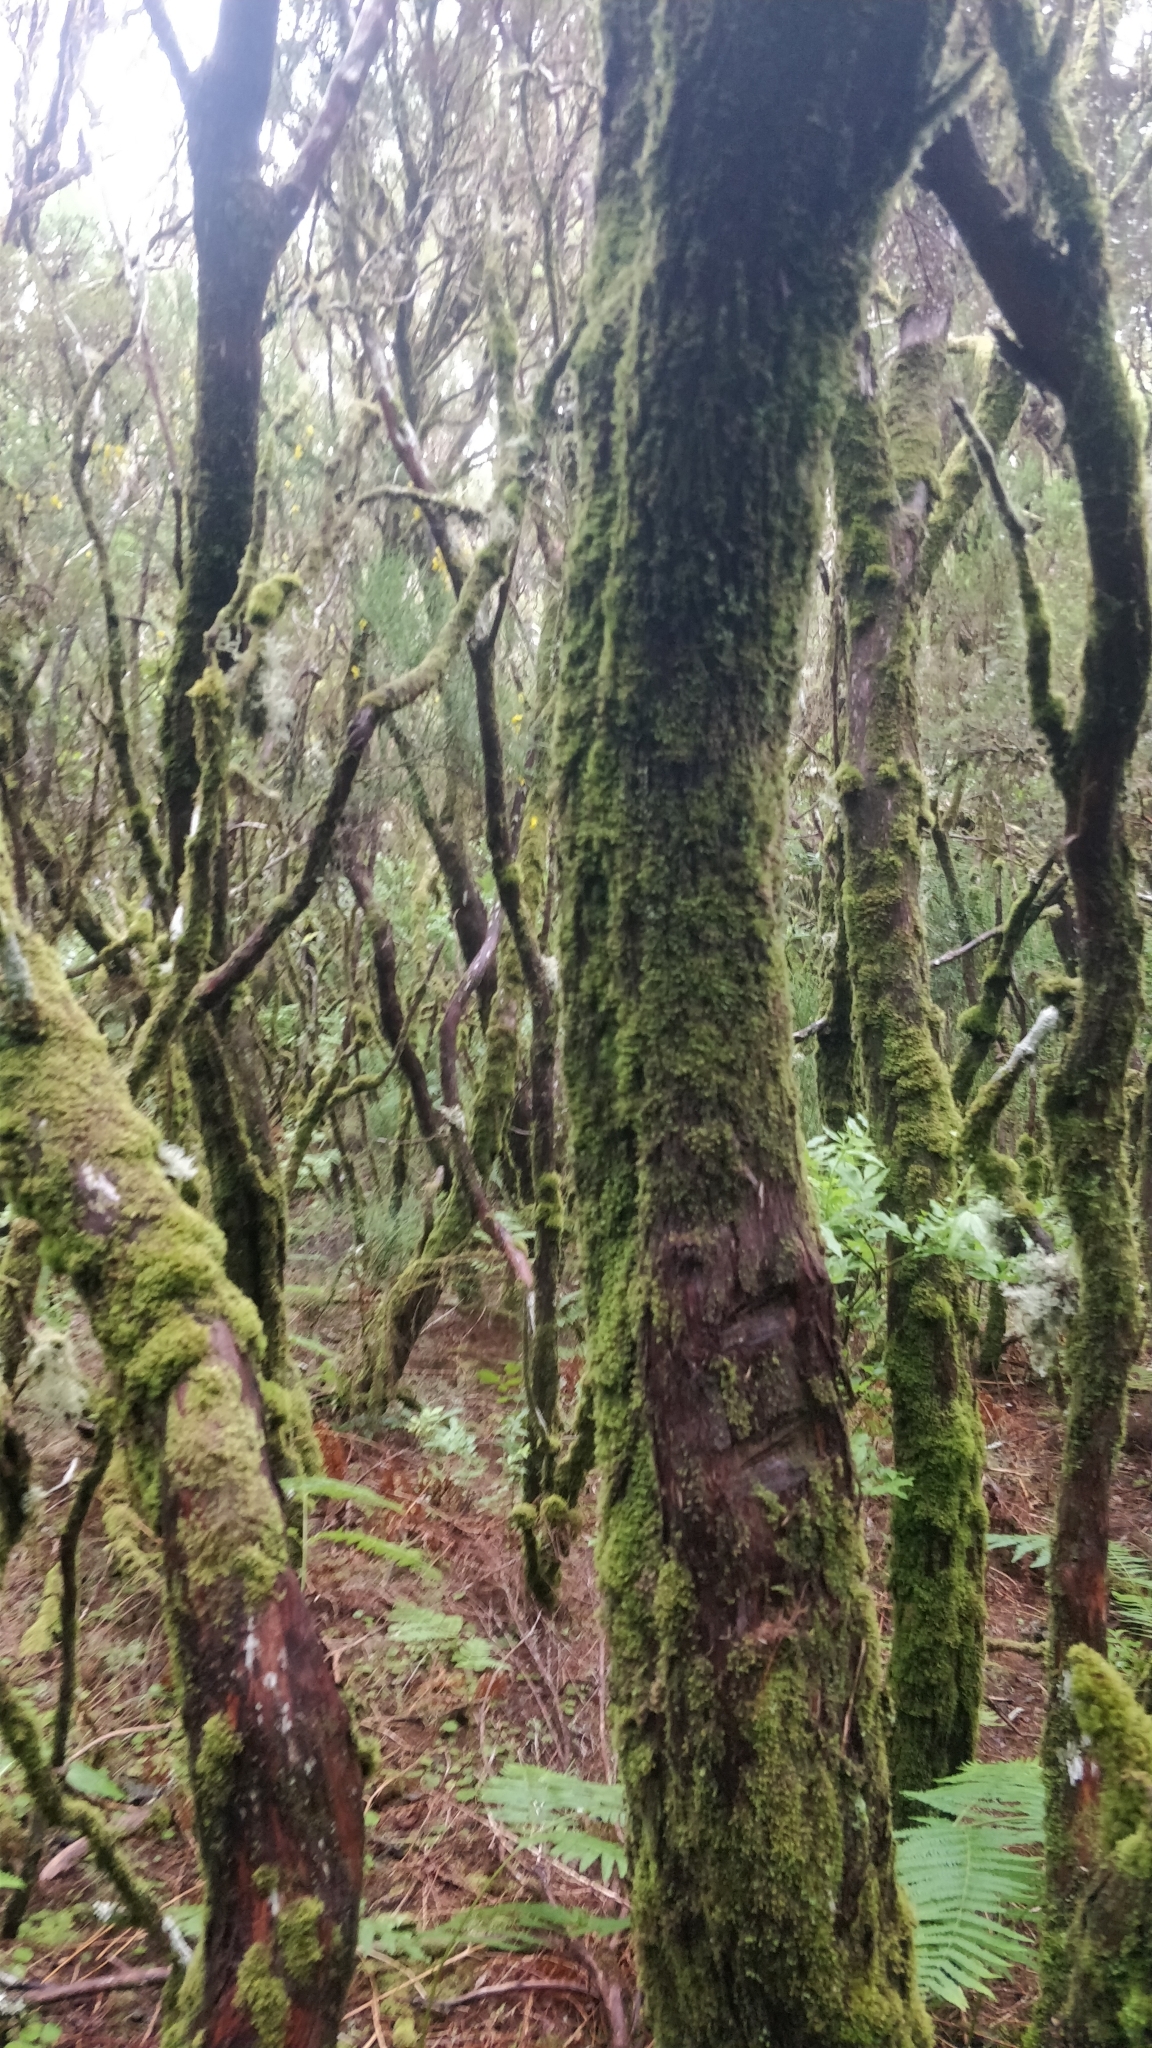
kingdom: Plantae
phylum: Tracheophyta
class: Magnoliopsida
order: Ericales
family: Ericaceae
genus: Erica
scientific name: Erica platycodon
